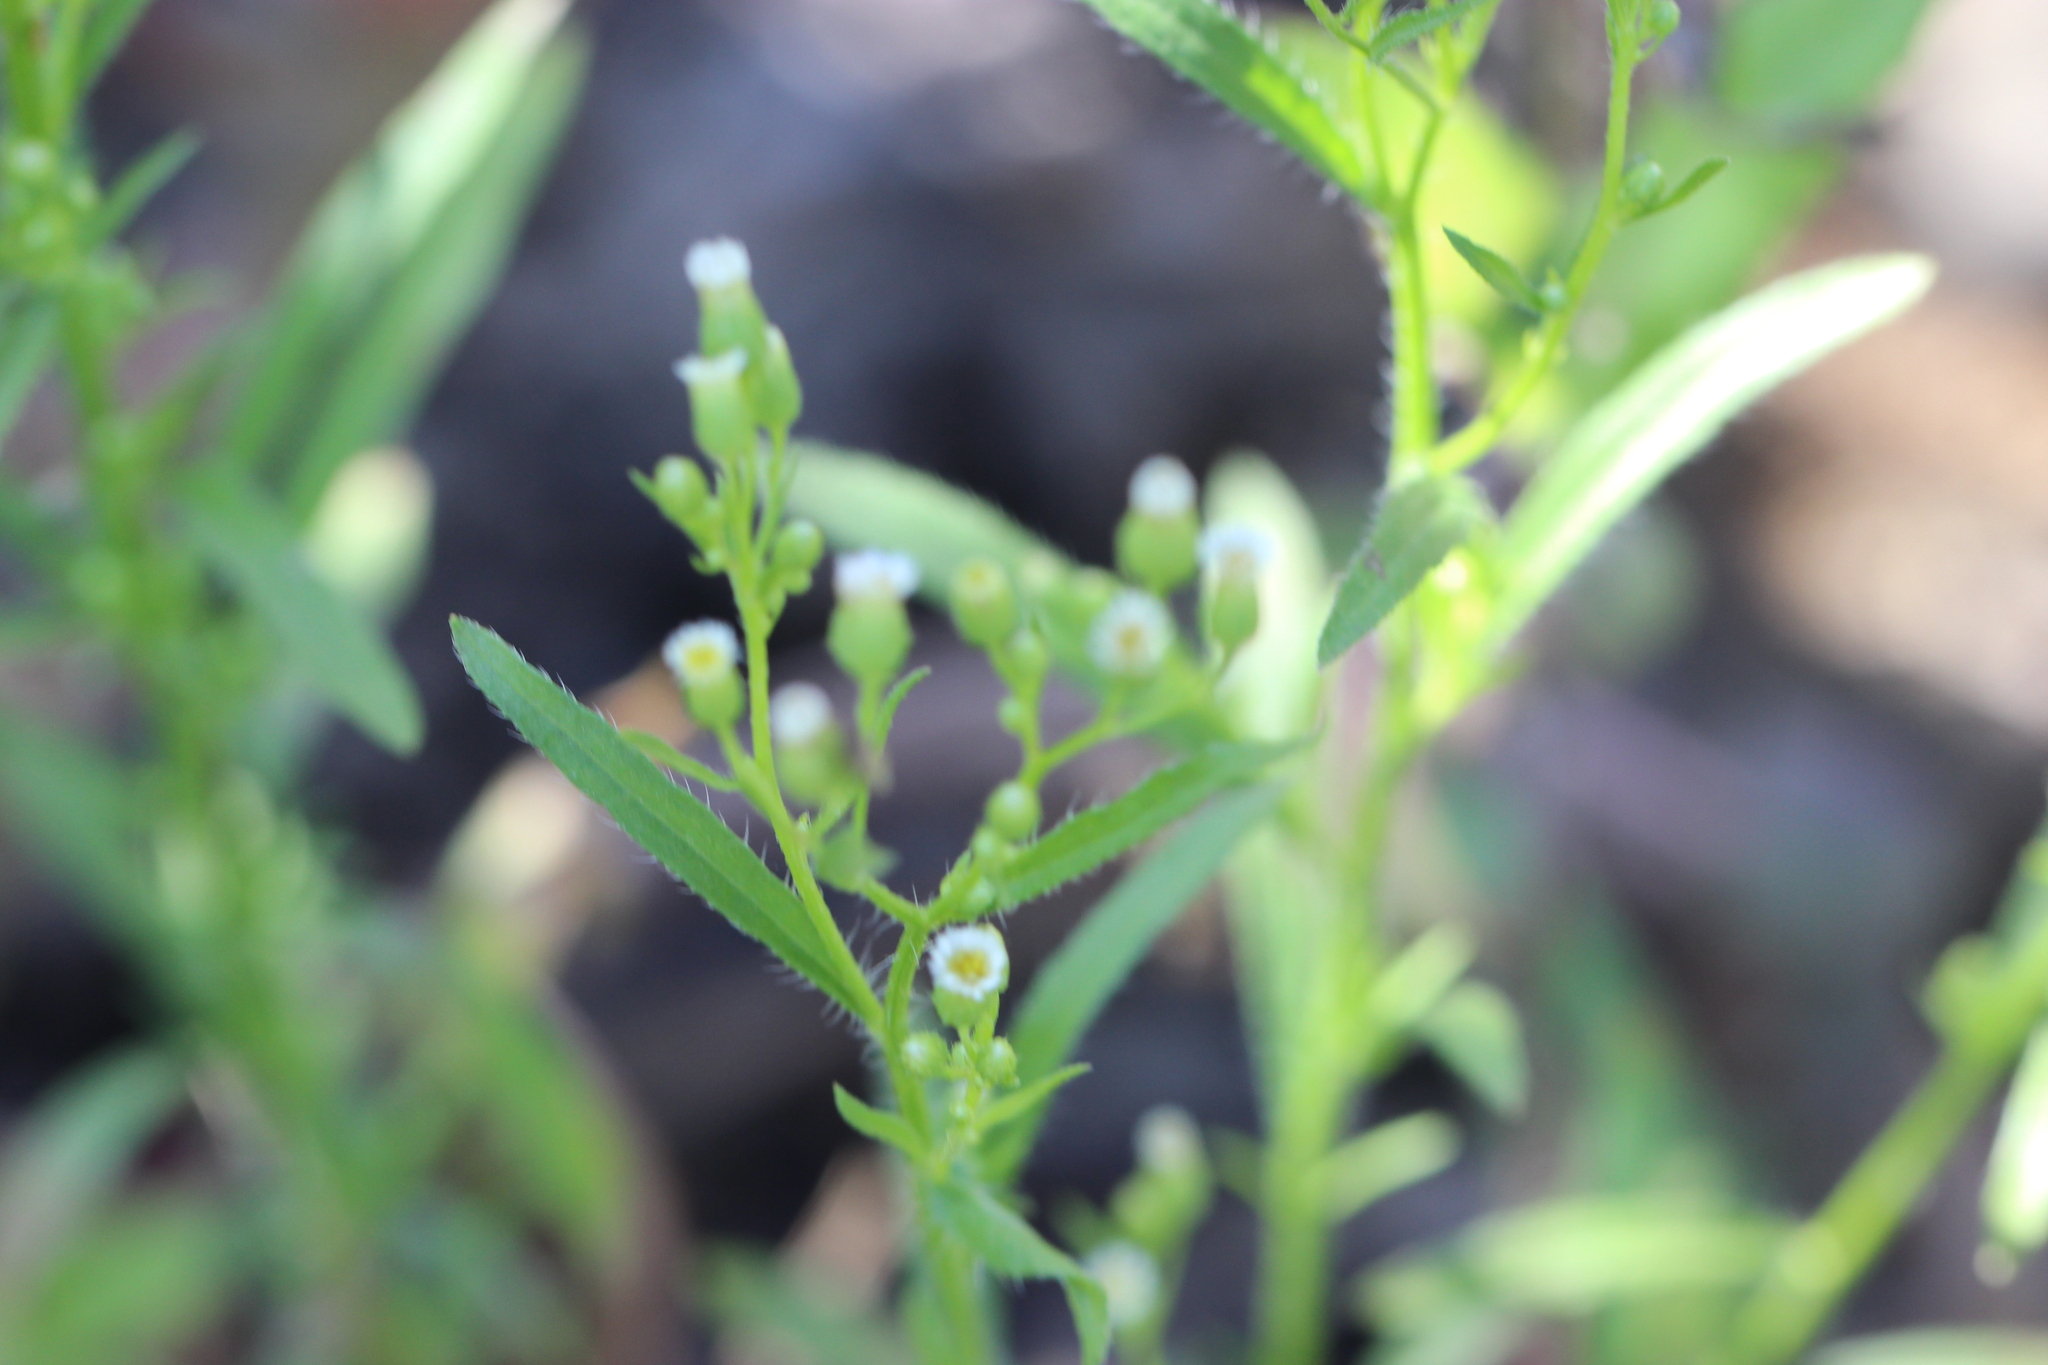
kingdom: Plantae
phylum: Tracheophyta
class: Magnoliopsida
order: Asterales
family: Asteraceae
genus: Erigeron
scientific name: Erigeron canadensis
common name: Canadian fleabane
